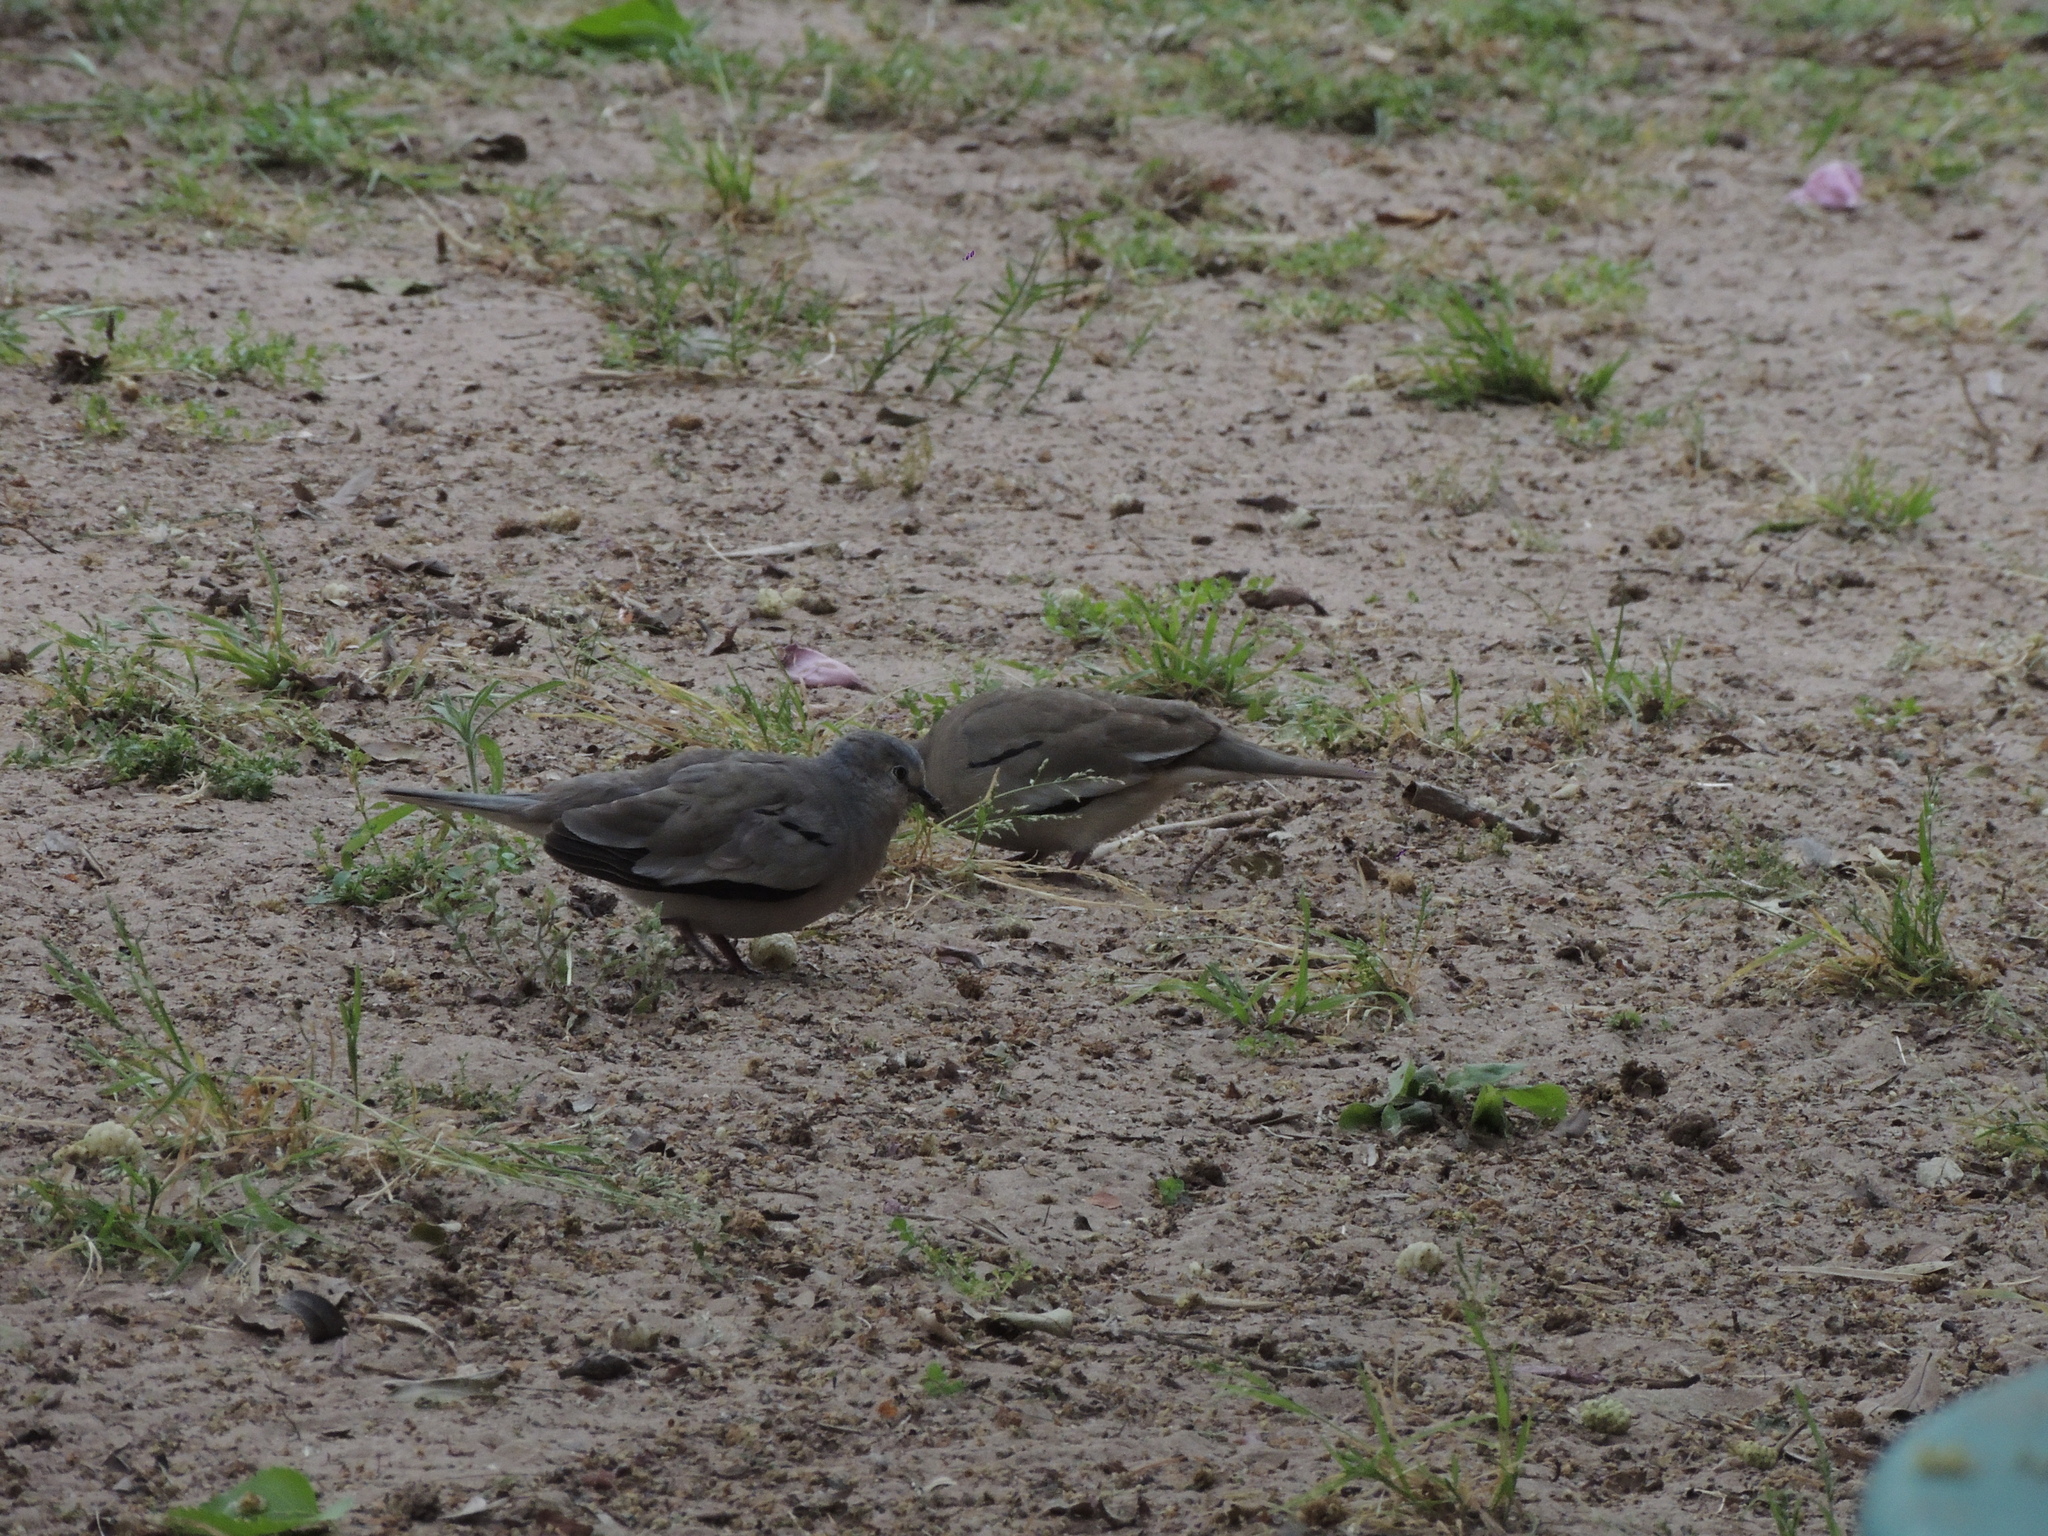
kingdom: Animalia
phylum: Chordata
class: Aves
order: Columbiformes
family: Columbidae
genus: Columbina
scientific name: Columbina picui
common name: Picui ground dove
